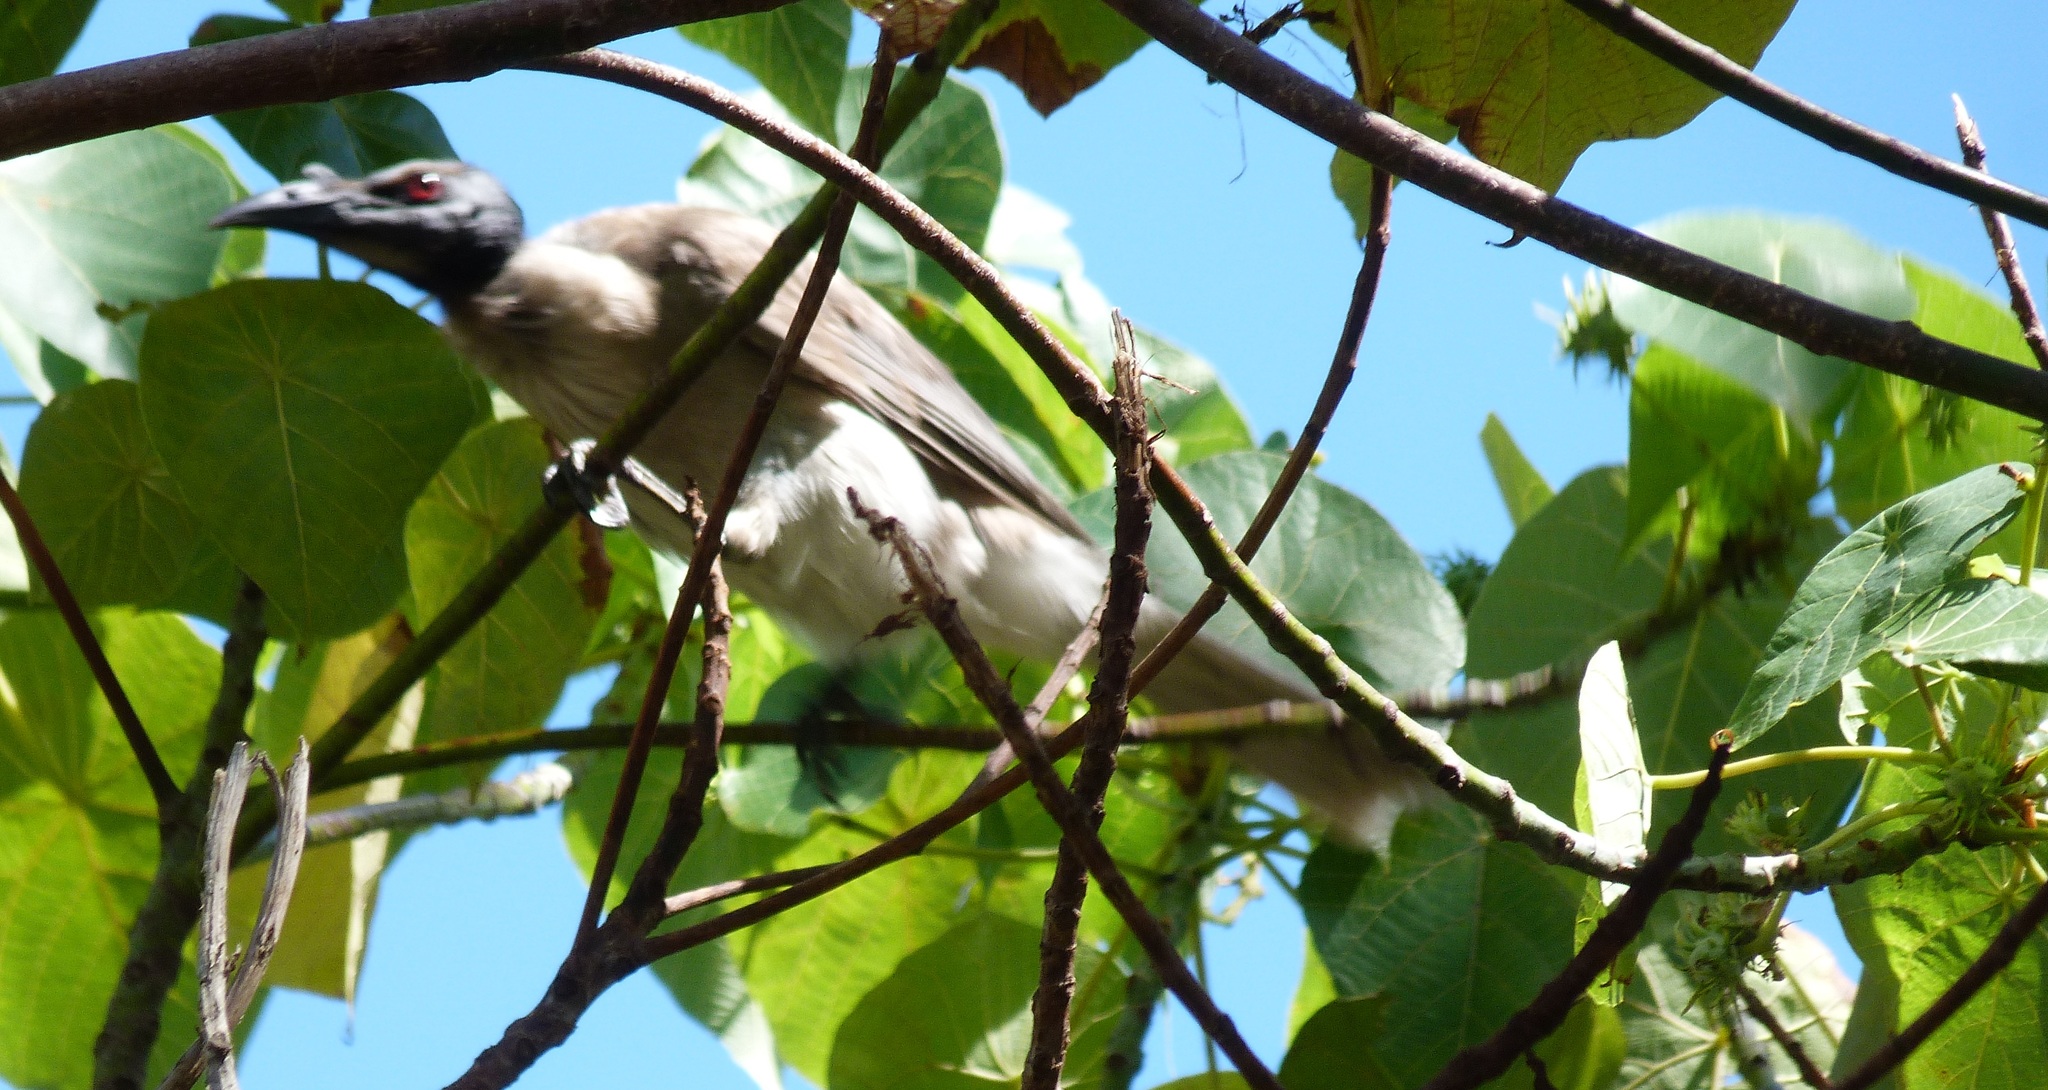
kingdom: Animalia
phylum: Chordata
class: Aves
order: Passeriformes
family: Meliphagidae
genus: Philemon
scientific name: Philemon corniculatus
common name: Noisy friarbird
